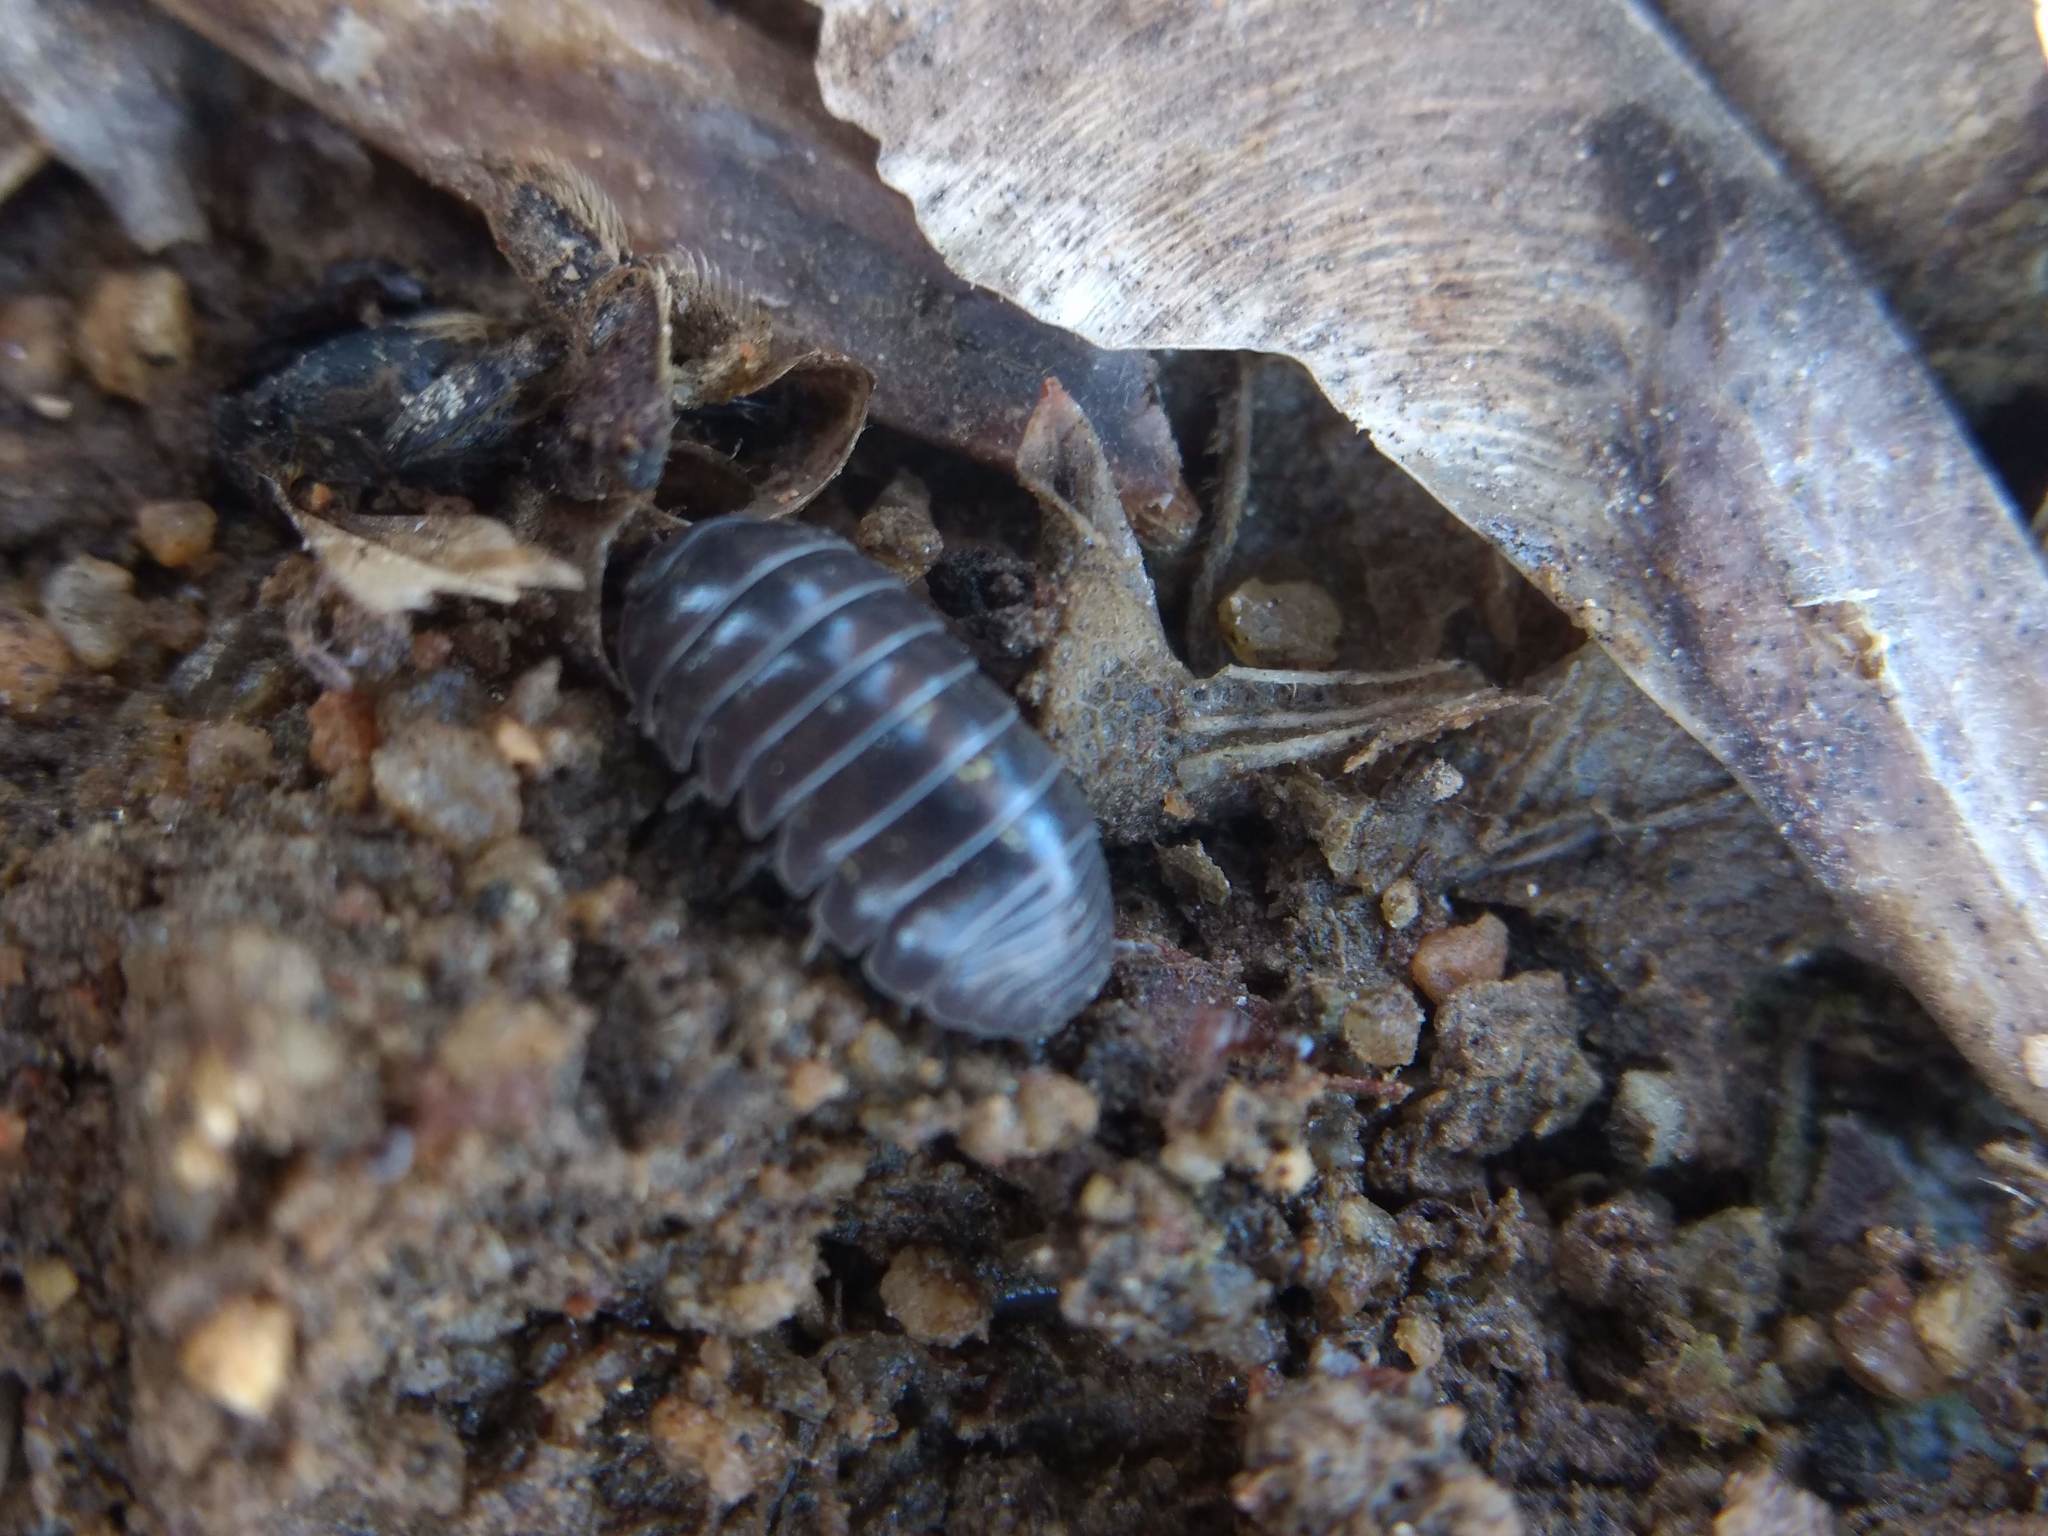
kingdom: Animalia
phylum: Arthropoda
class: Malacostraca
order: Isopoda
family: Armadillidiidae
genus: Armadillidium
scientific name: Armadillidium vulgare
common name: Common pill woodlouse
